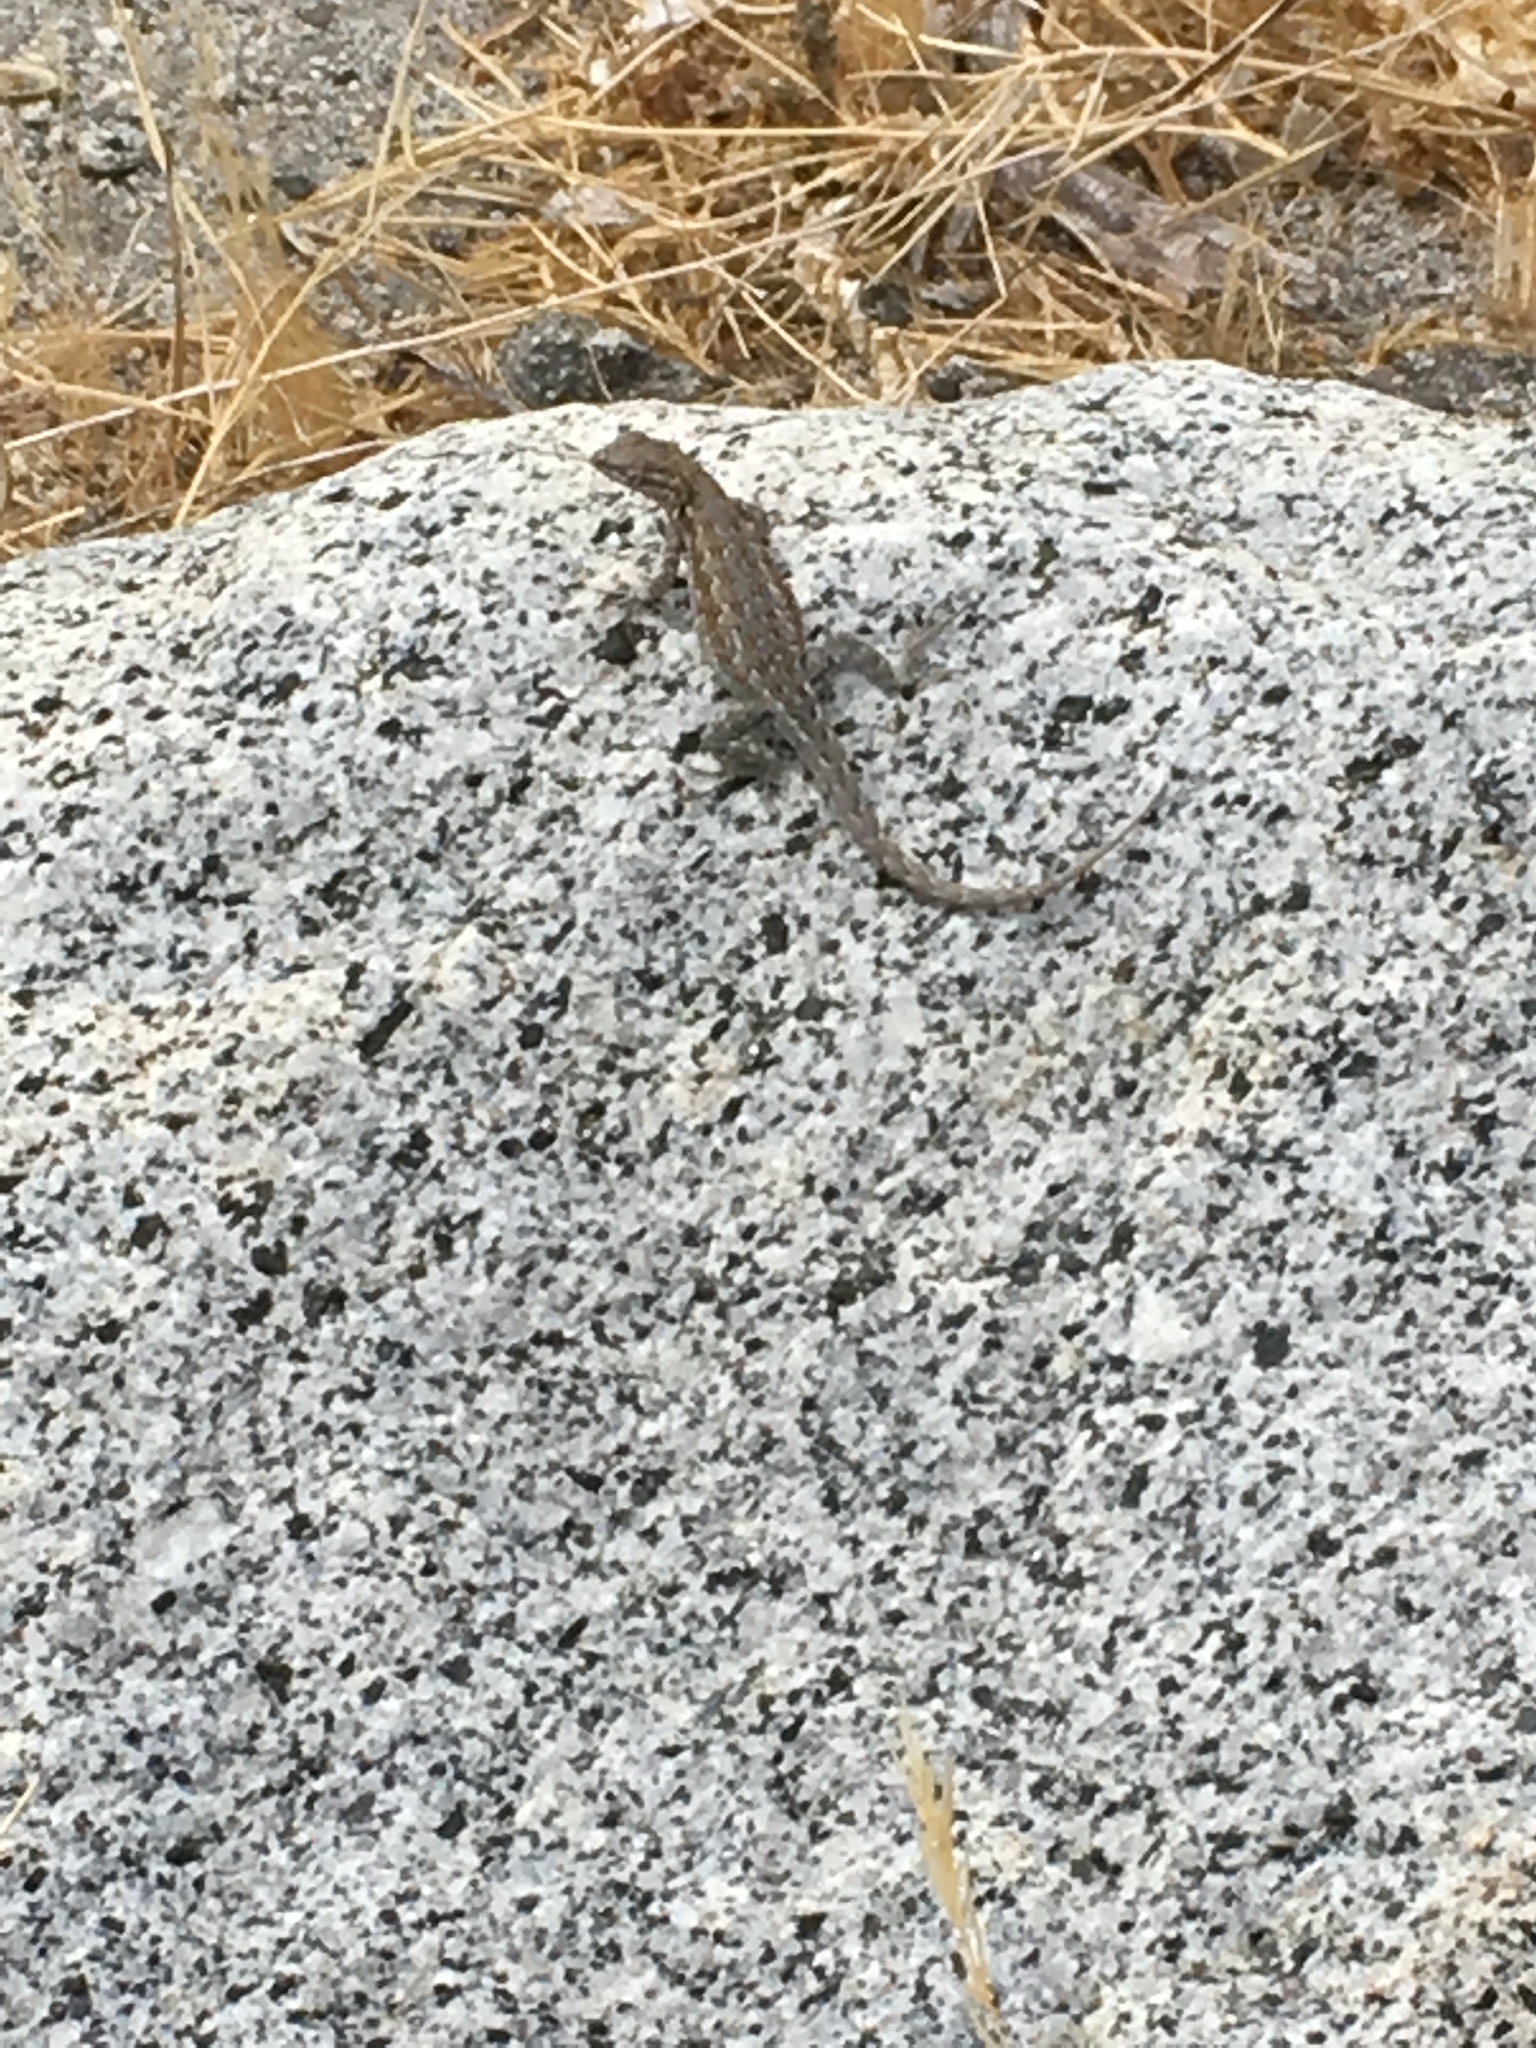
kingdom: Animalia
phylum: Chordata
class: Squamata
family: Phrynosomatidae
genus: Uta
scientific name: Uta stansburiana
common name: Side-blotched lizard
